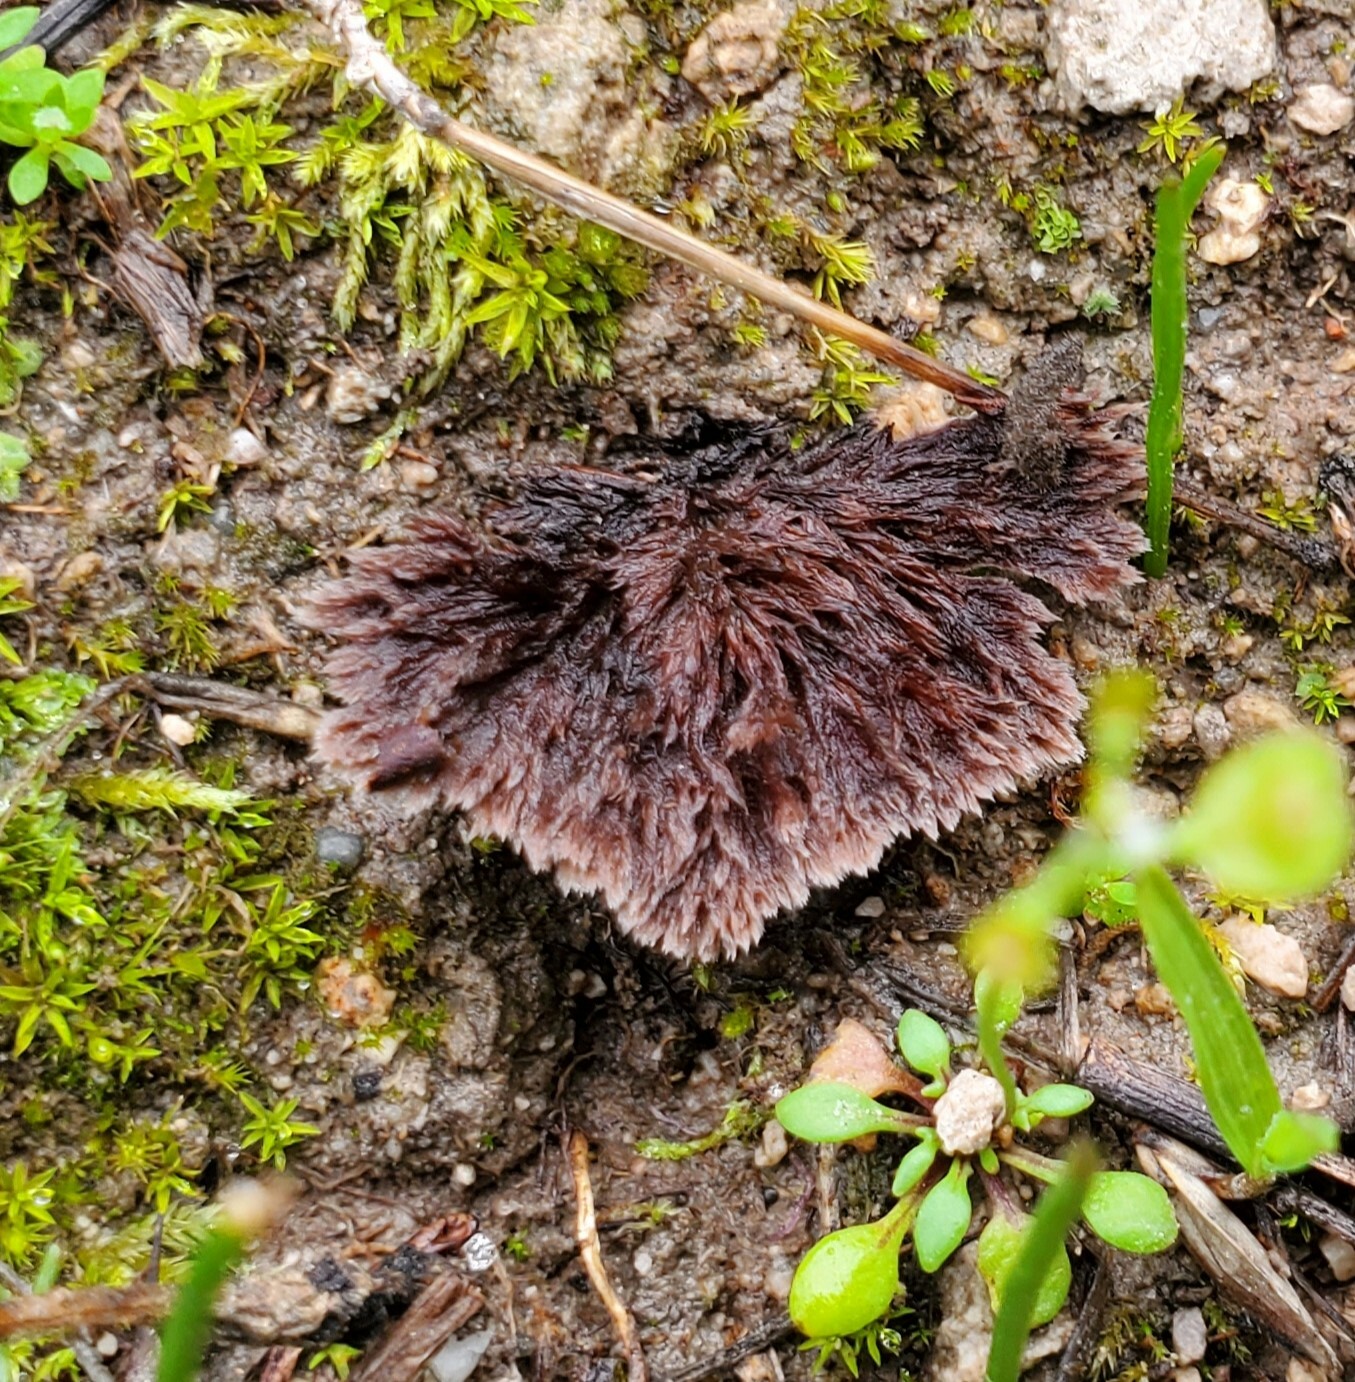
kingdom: Fungi
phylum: Basidiomycota
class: Agaricomycetes
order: Thelephorales
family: Thelephoraceae
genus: Thelephora
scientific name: Thelephora terrestris
